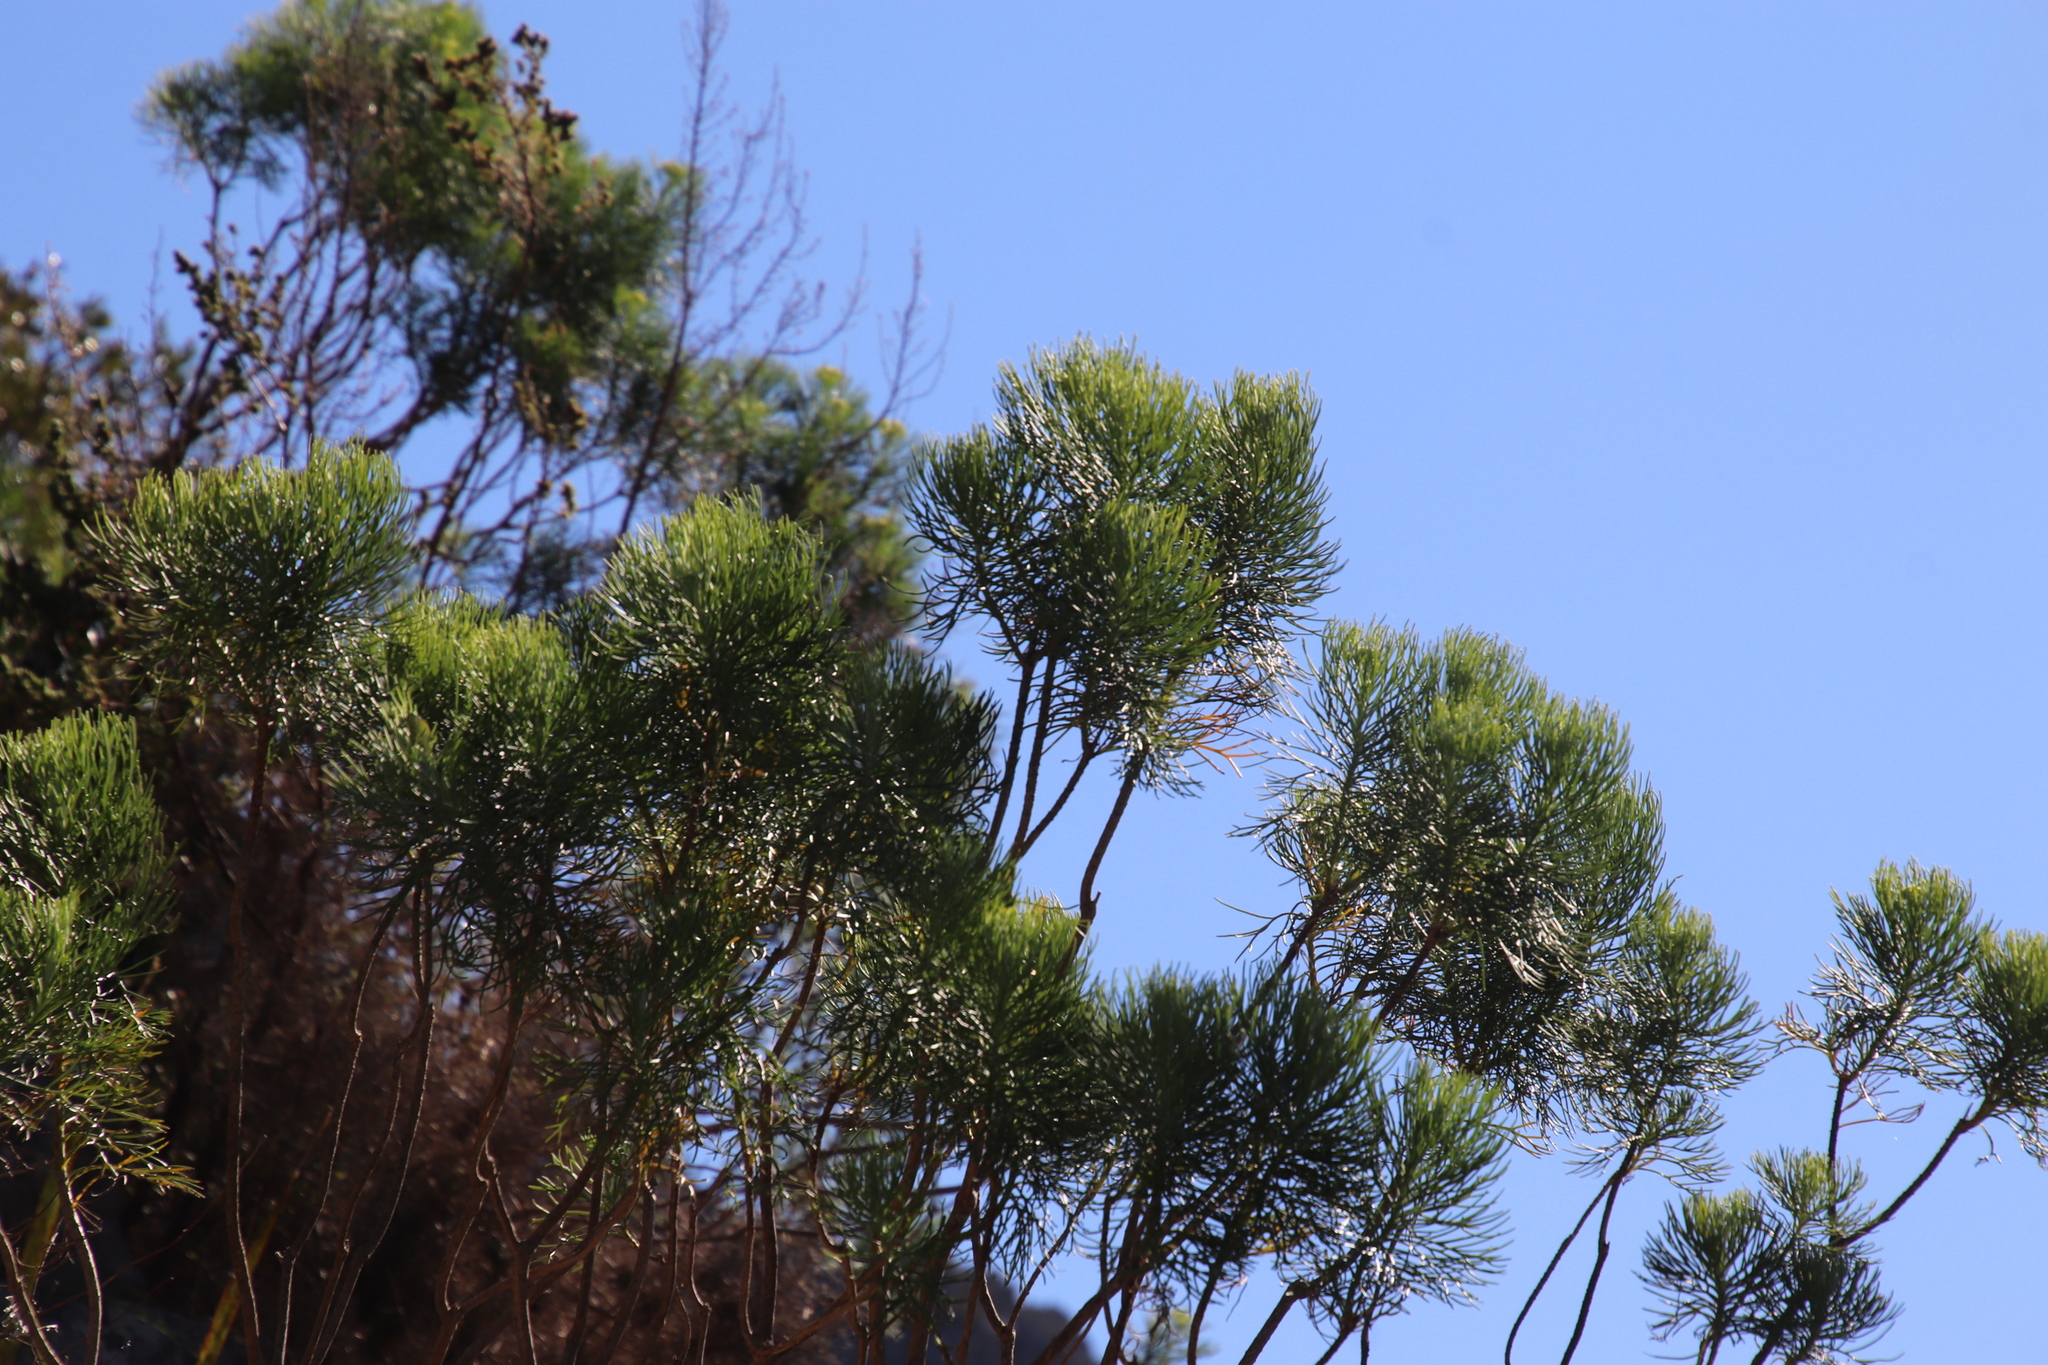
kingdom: Plantae
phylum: Tracheophyta
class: Magnoliopsida
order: Asterales
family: Asteraceae
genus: Athanasia
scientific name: Athanasia crithmifolia
